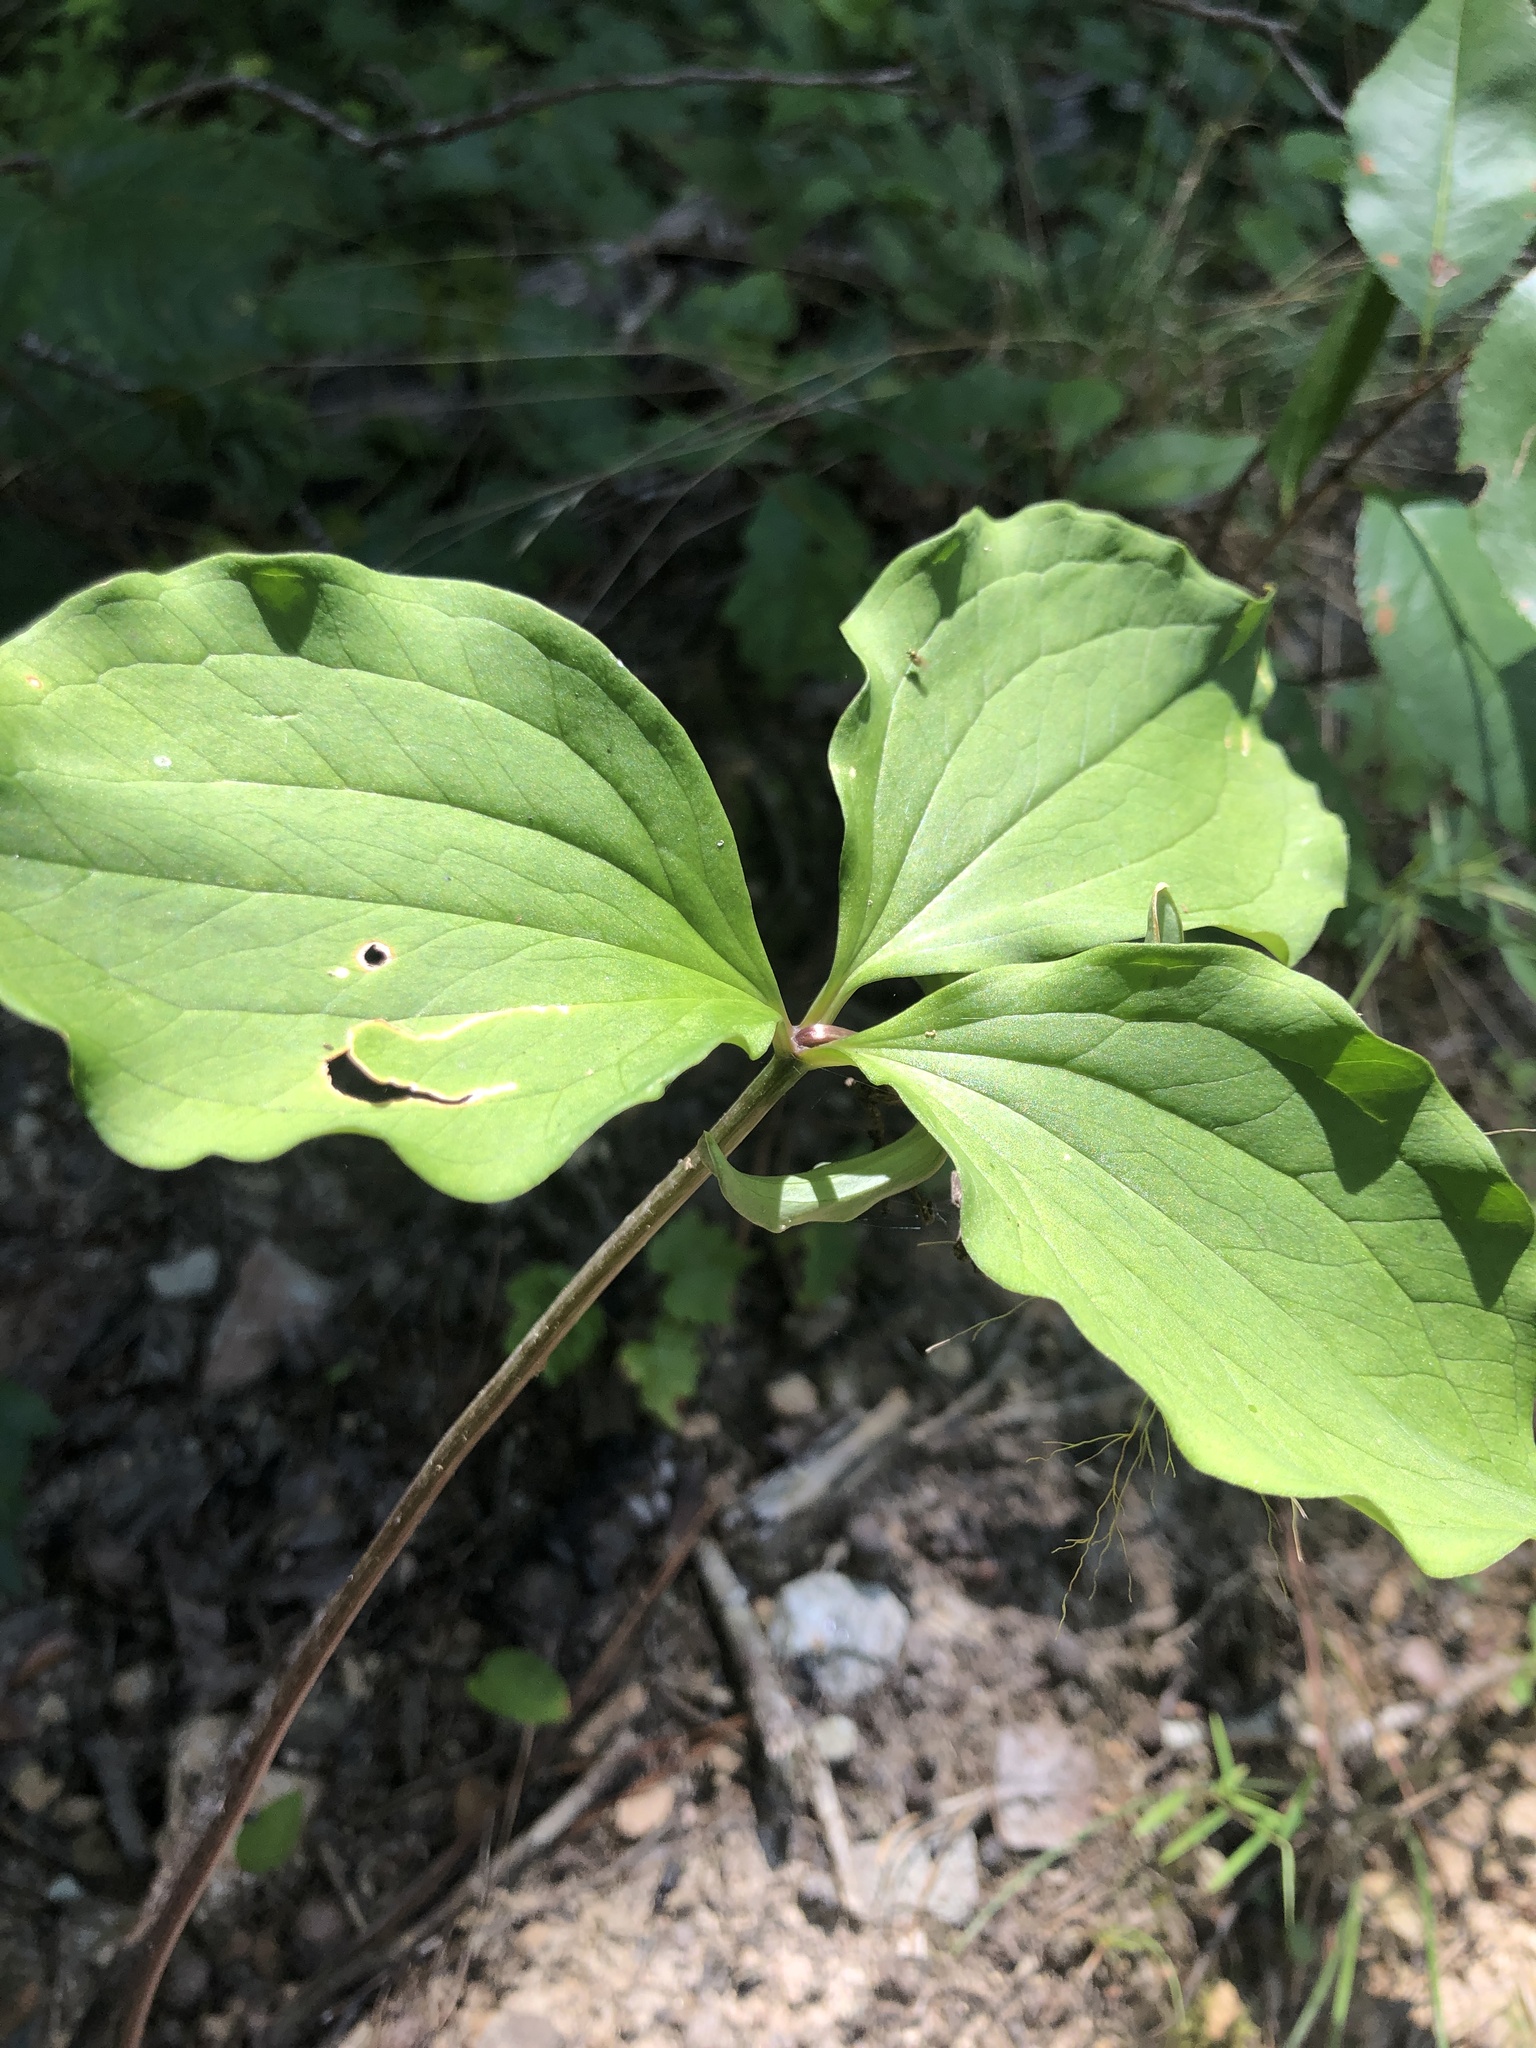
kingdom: Plantae
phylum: Tracheophyta
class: Liliopsida
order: Liliales
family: Melanthiaceae
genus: Trillium
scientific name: Trillium catesbaei
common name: Bashful trillium
